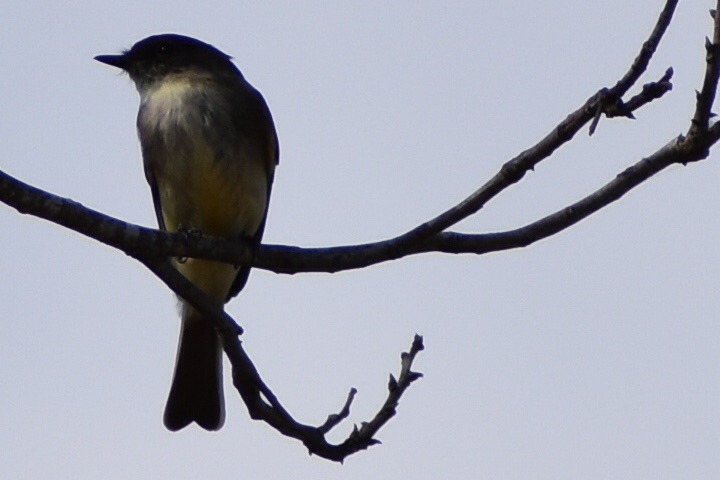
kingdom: Animalia
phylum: Chordata
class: Aves
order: Passeriformes
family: Tyrannidae
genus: Sayornis
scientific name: Sayornis phoebe
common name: Eastern phoebe
